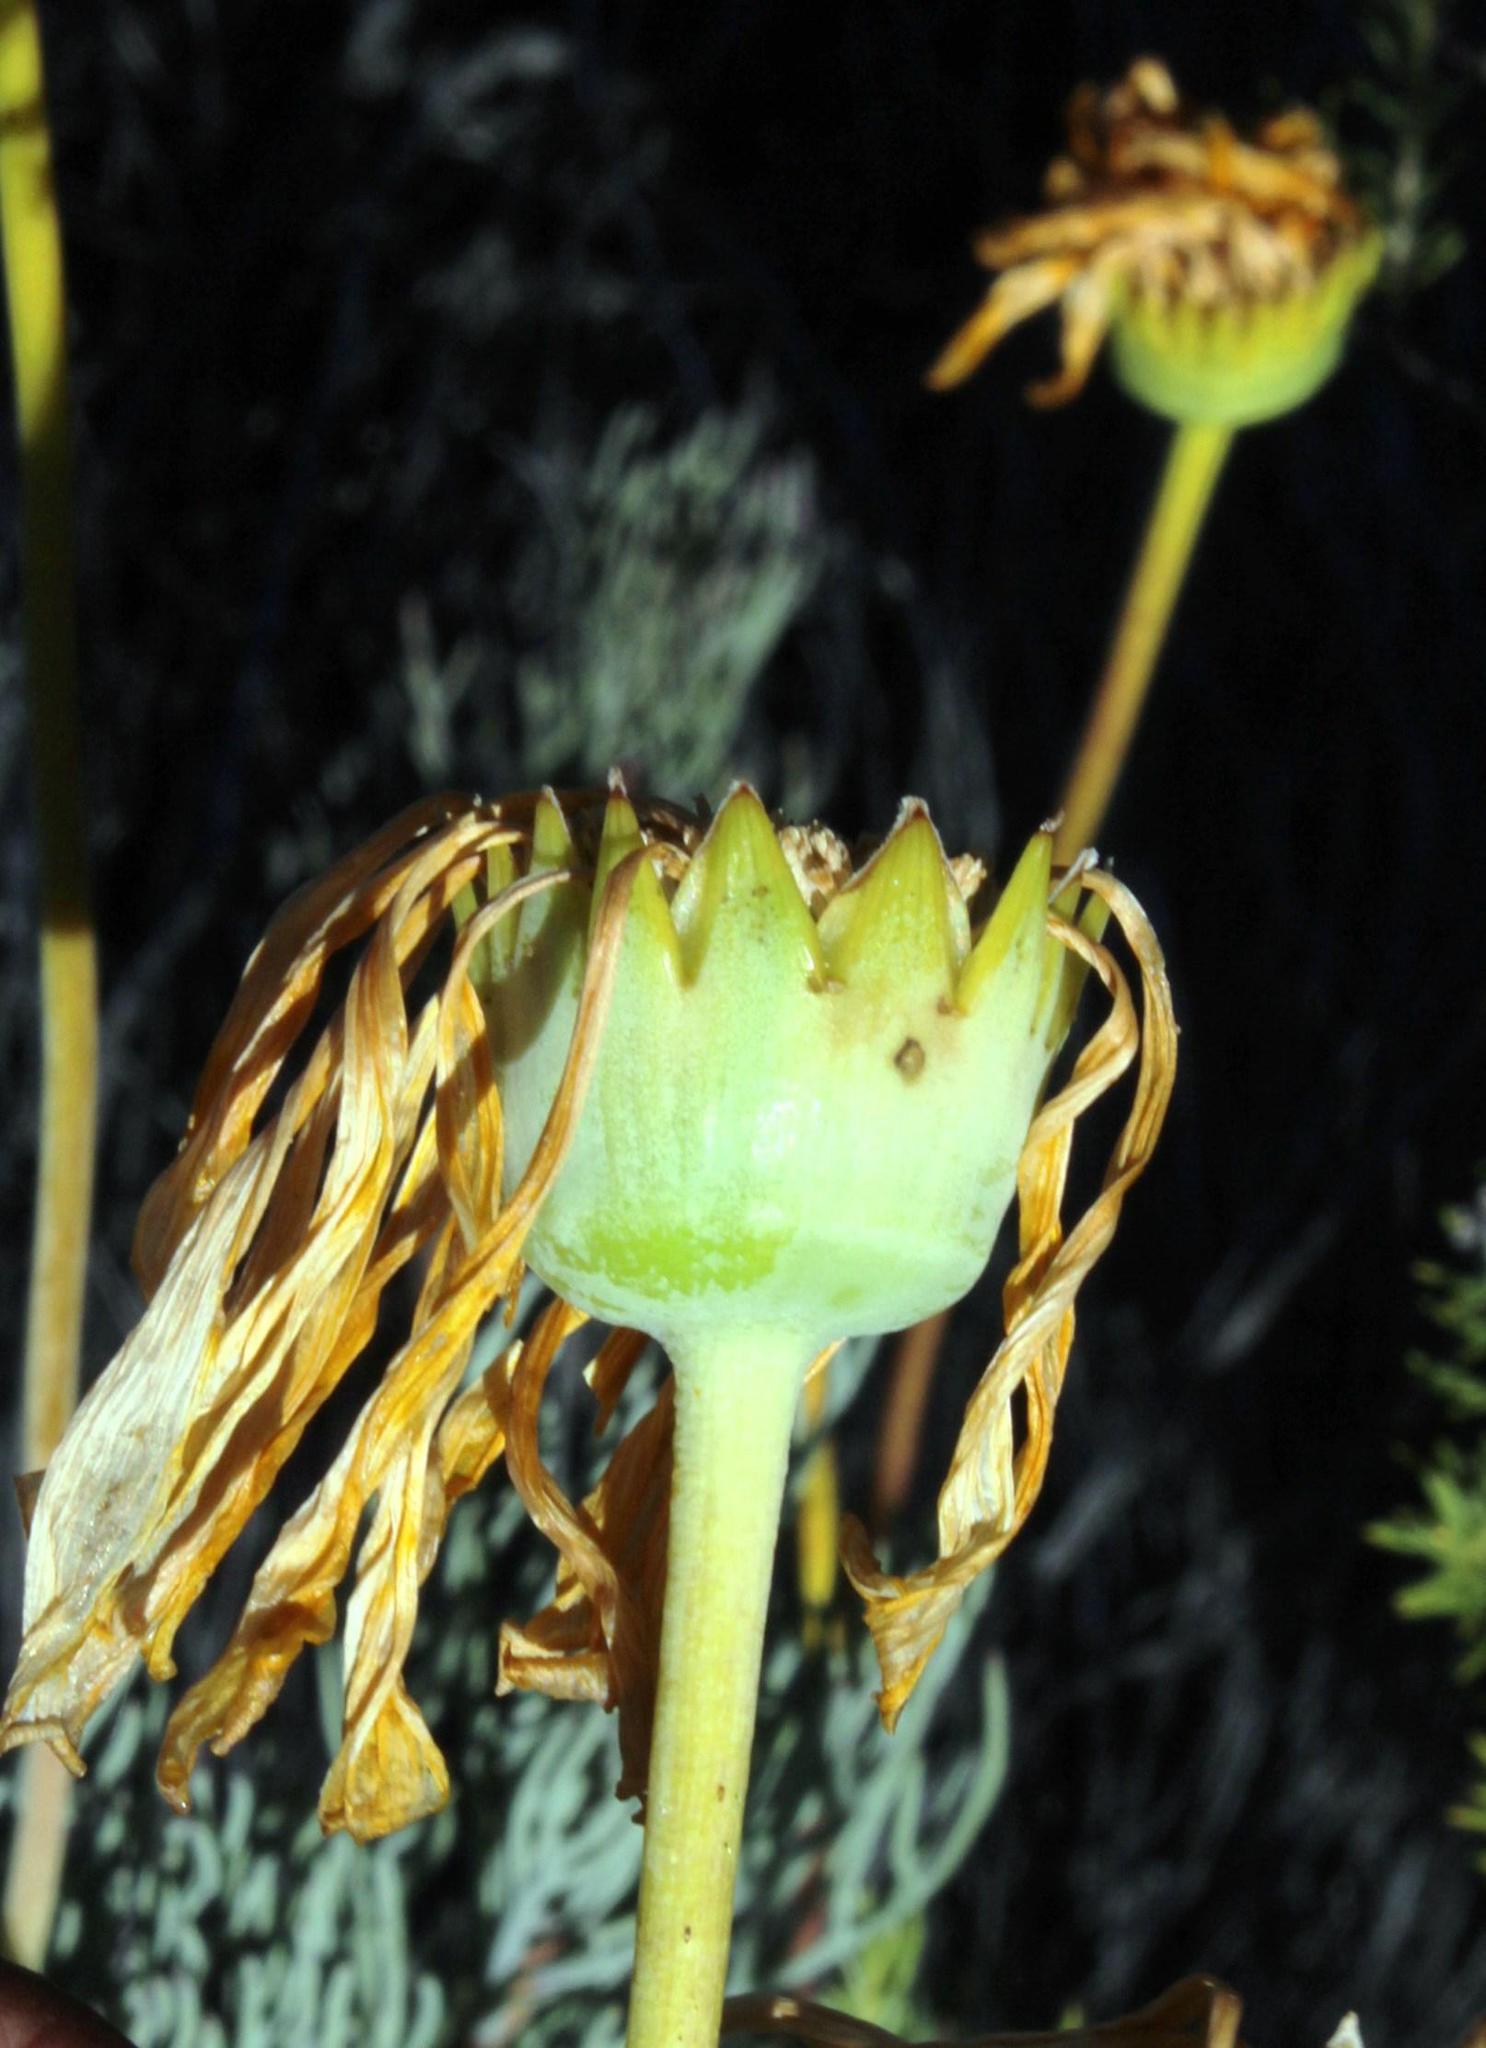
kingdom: Plantae
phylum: Tracheophyta
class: Magnoliopsida
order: Asterales
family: Asteraceae
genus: Euryops
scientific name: Euryops wageneri
